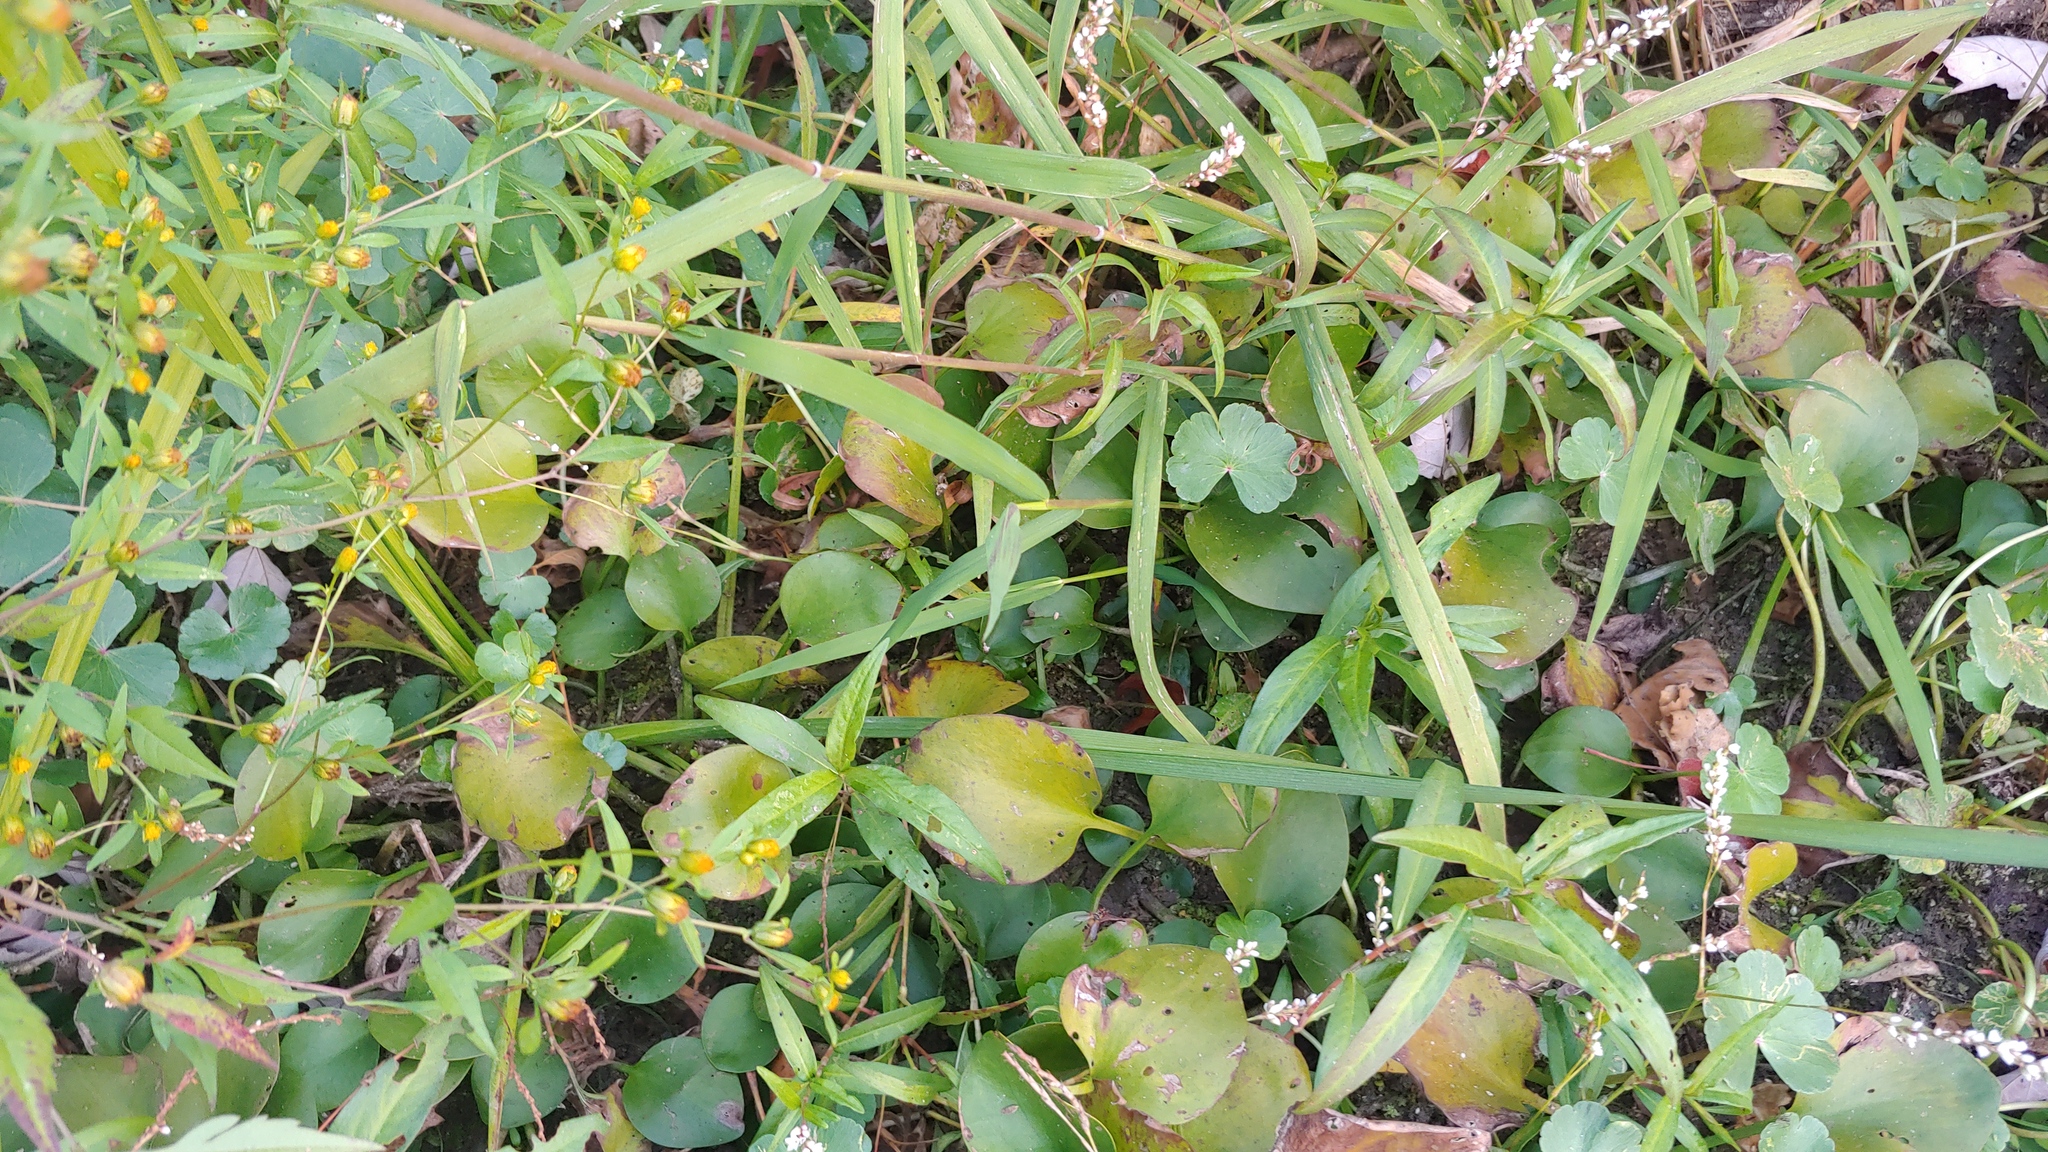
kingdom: Plantae
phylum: Tracheophyta
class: Liliopsida
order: Commelinales
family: Pontederiaceae
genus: Heteranthera
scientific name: Heteranthera limosa
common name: Blue mud-plantain
